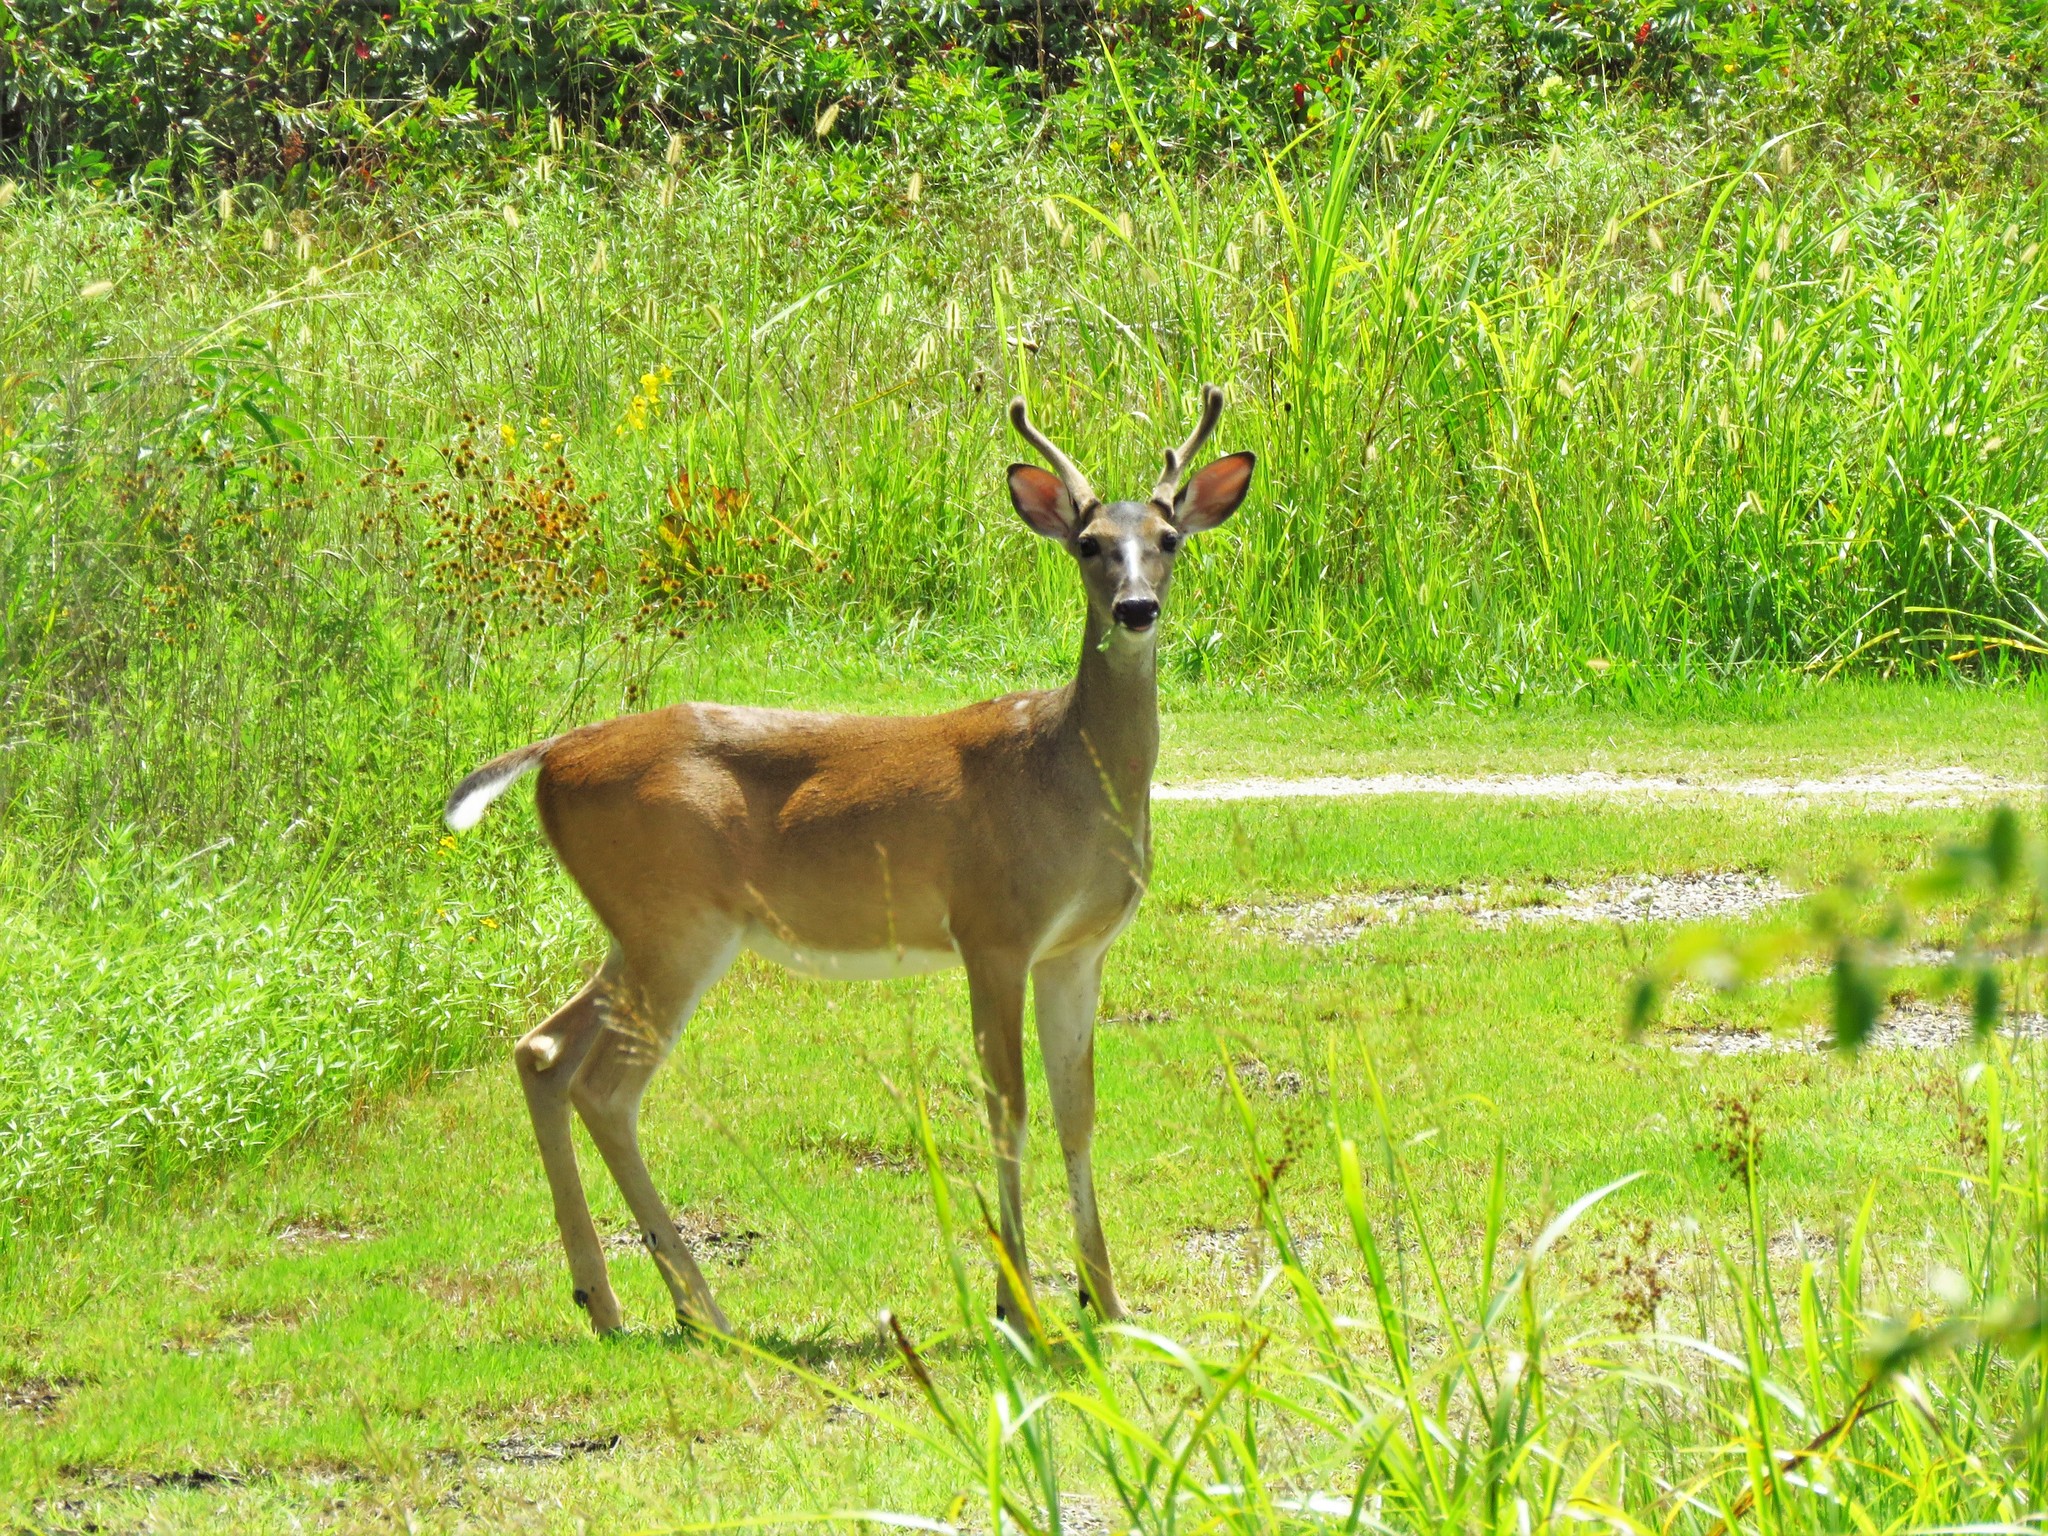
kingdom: Animalia
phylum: Chordata
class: Mammalia
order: Artiodactyla
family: Cervidae
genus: Odocoileus
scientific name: Odocoileus virginianus
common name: White-tailed deer
